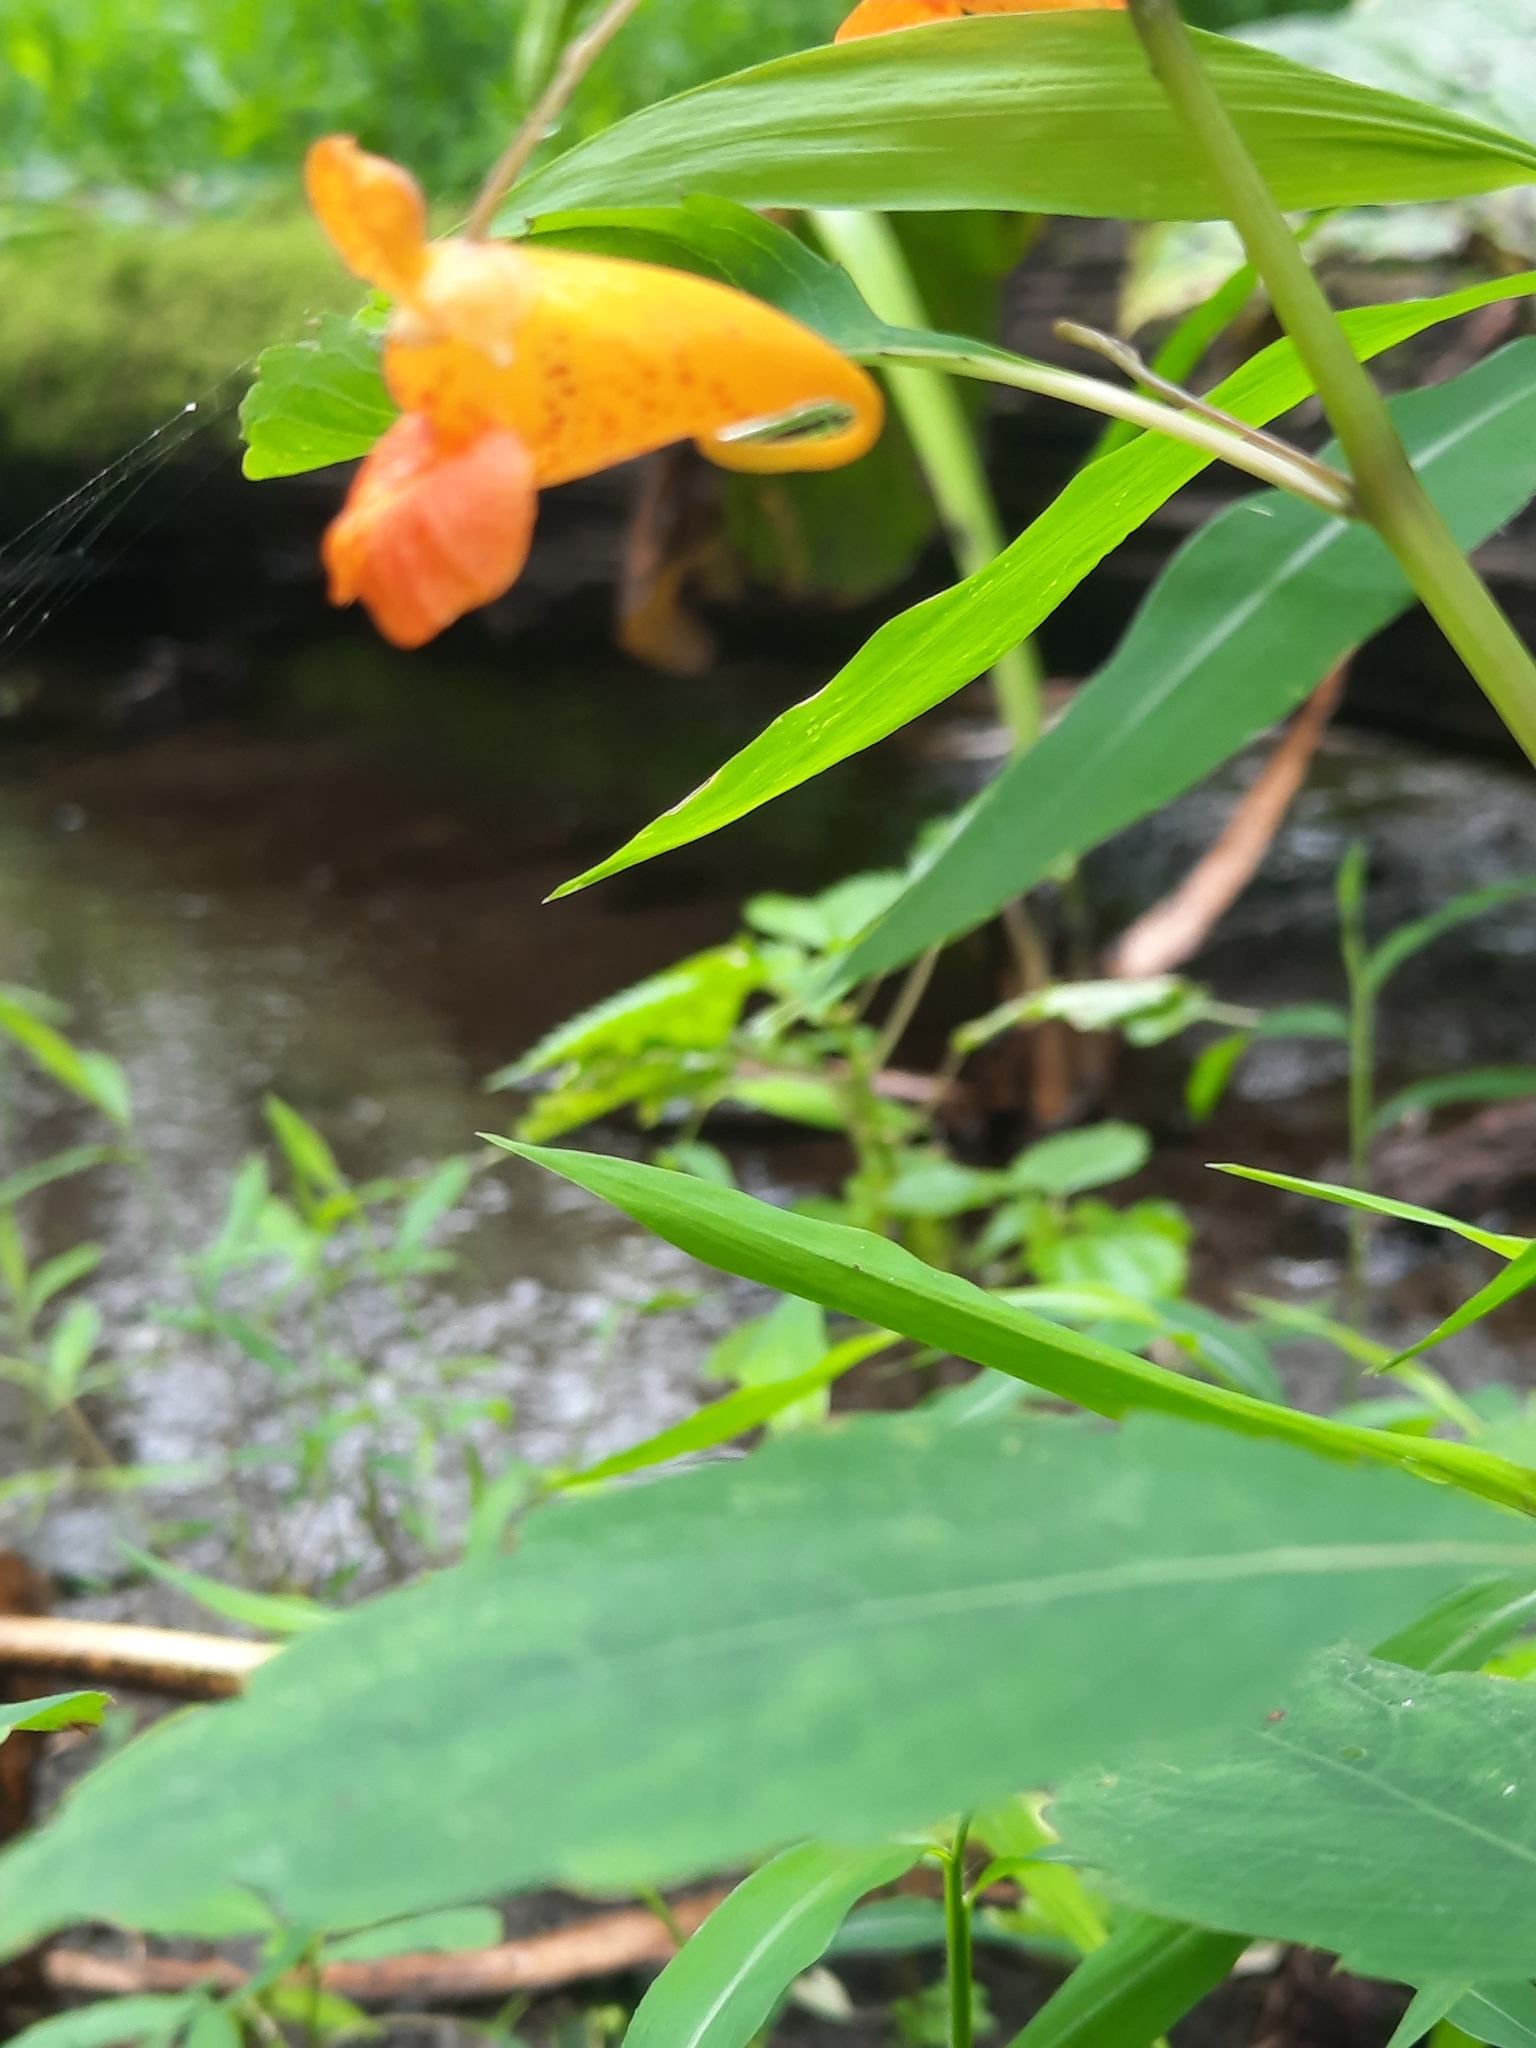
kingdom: Plantae
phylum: Tracheophyta
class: Magnoliopsida
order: Ericales
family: Balsaminaceae
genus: Impatiens
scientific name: Impatiens capensis
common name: Orange balsam
